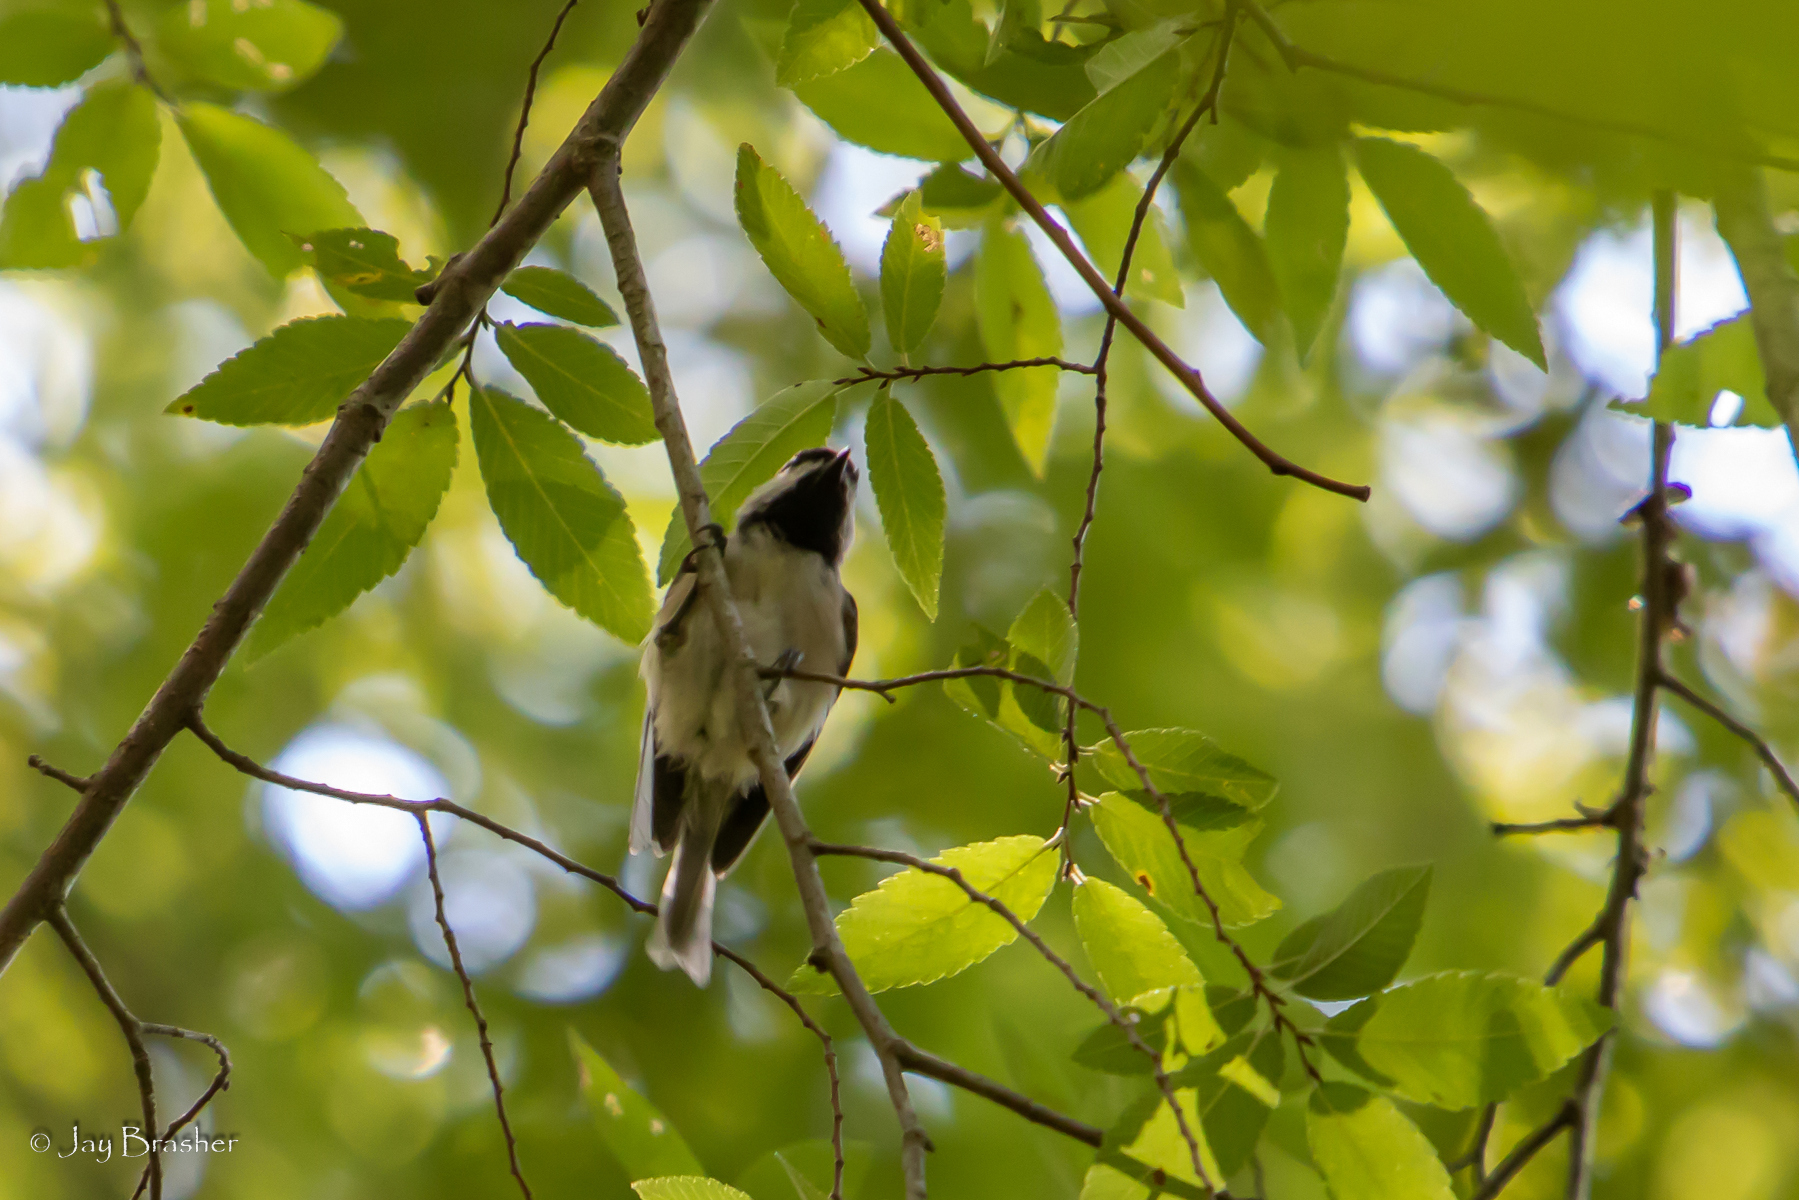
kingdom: Animalia
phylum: Chordata
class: Aves
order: Passeriformes
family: Paridae
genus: Poecile
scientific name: Poecile carolinensis
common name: Carolina chickadee
